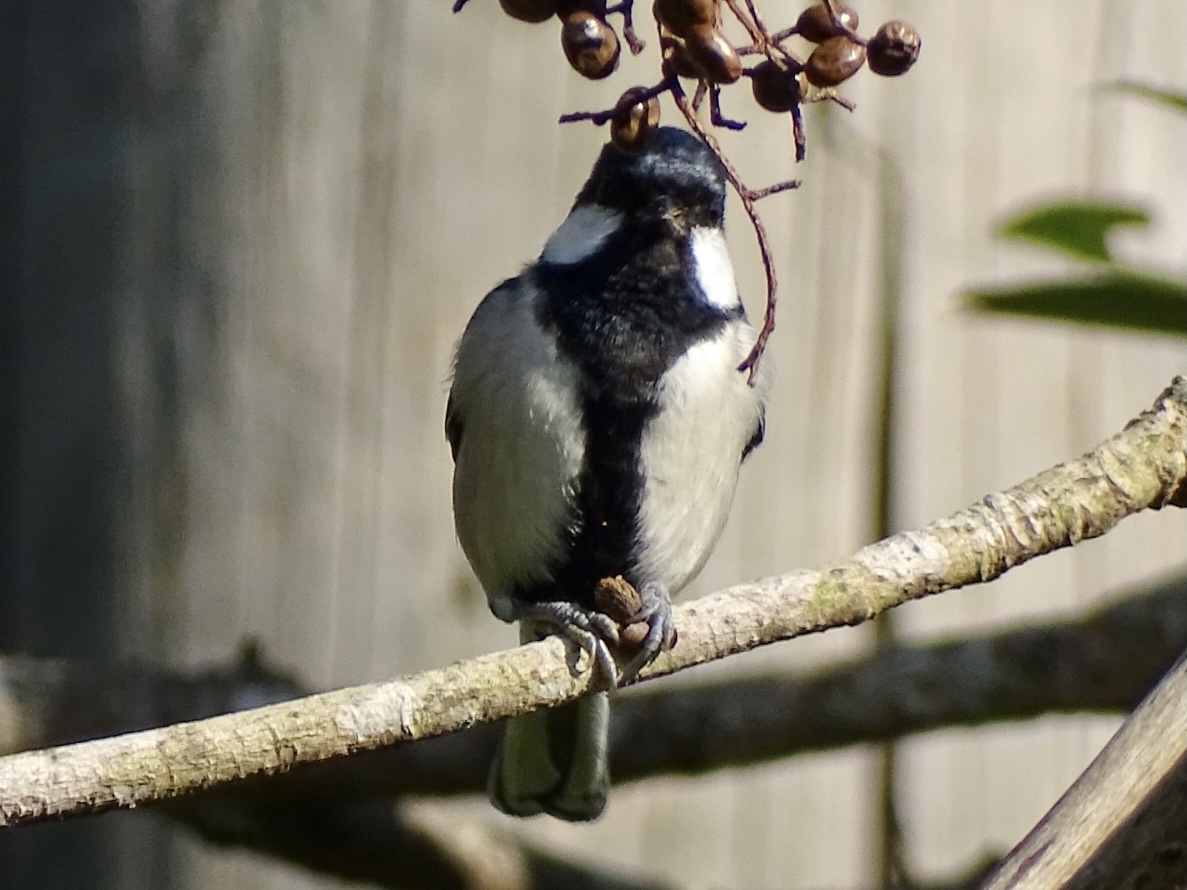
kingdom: Animalia
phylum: Chordata
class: Aves
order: Passeriformes
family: Paridae
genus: Parus
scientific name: Parus minor
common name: Japanese tit
